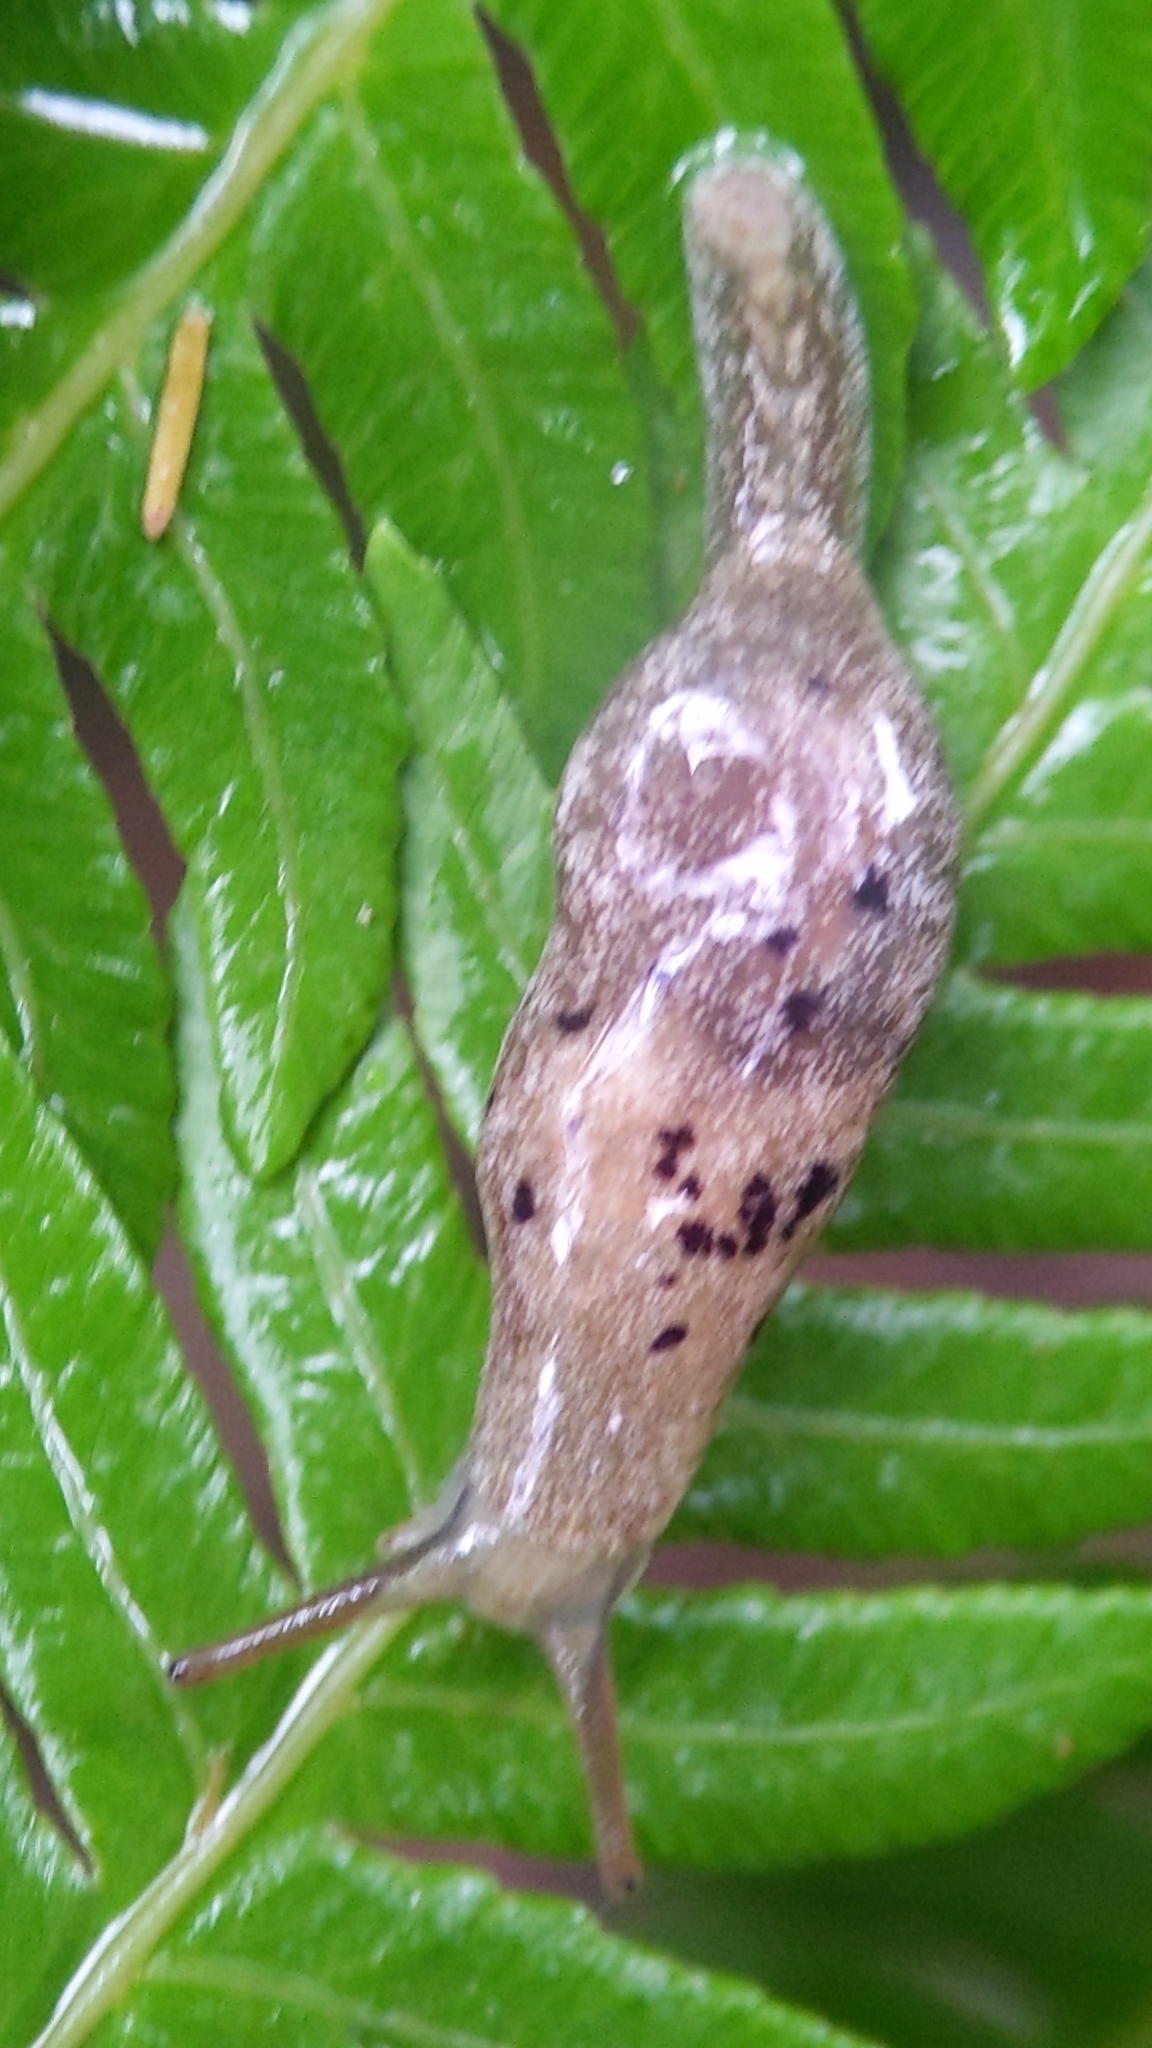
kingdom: Animalia
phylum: Mollusca
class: Gastropoda
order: Stylommatophora
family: Cystopeltidae
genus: Cystopelta
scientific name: Cystopelta purpurea
